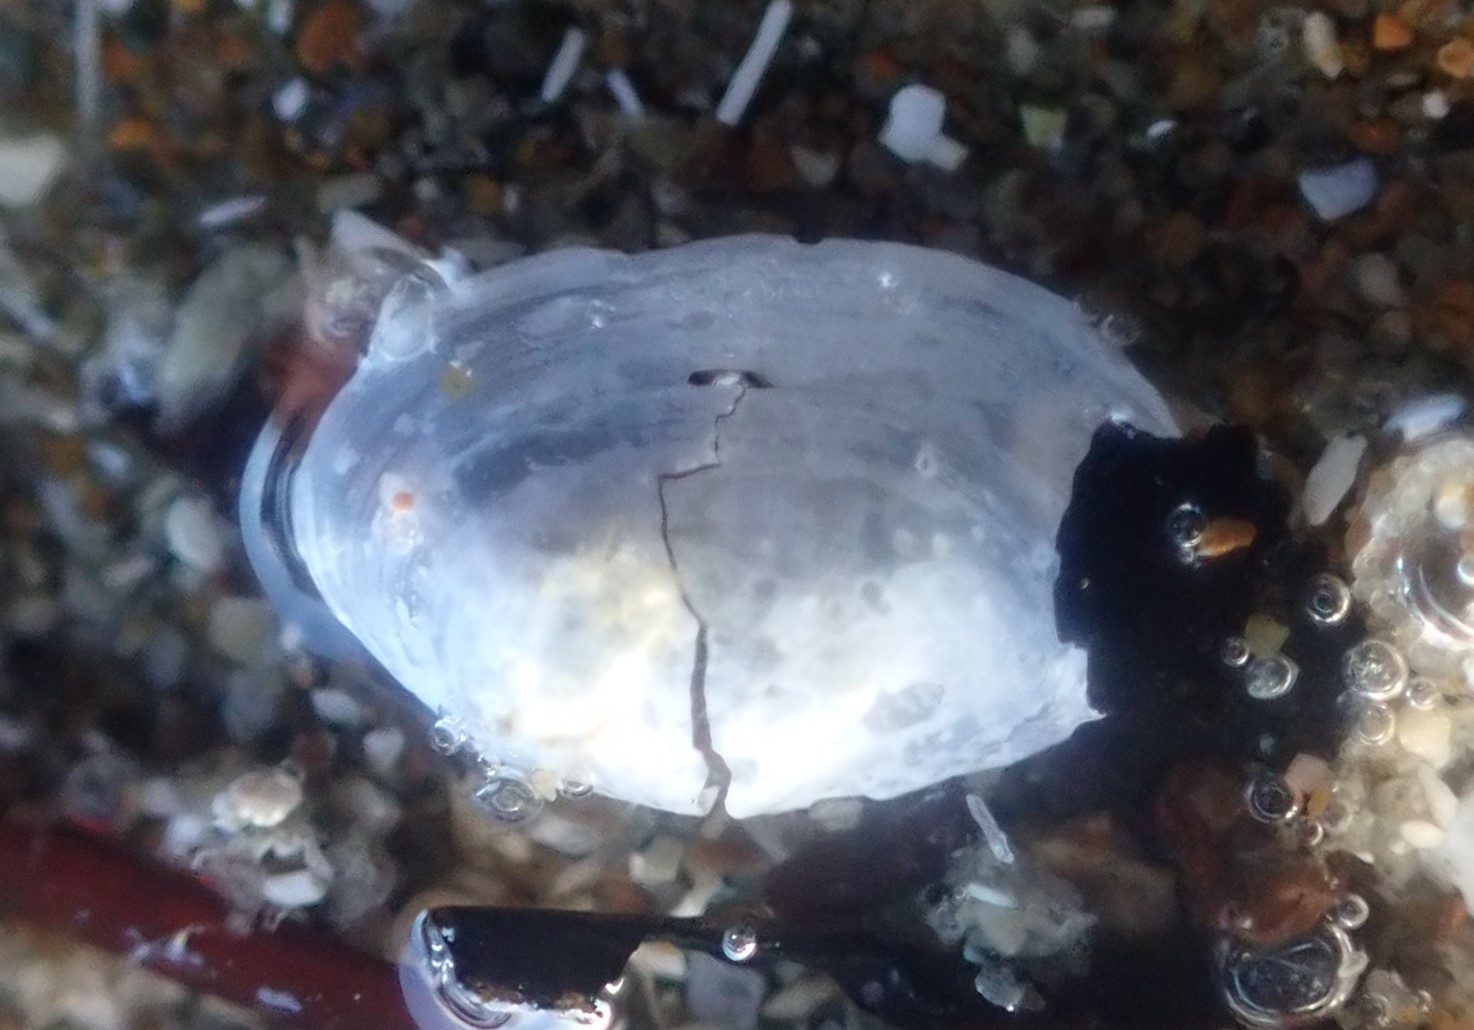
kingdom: Animalia
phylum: Mollusca
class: Bivalvia
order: Cardiida
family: Semelidae
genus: Theora
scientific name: Theora lubrica
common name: Asian semele
